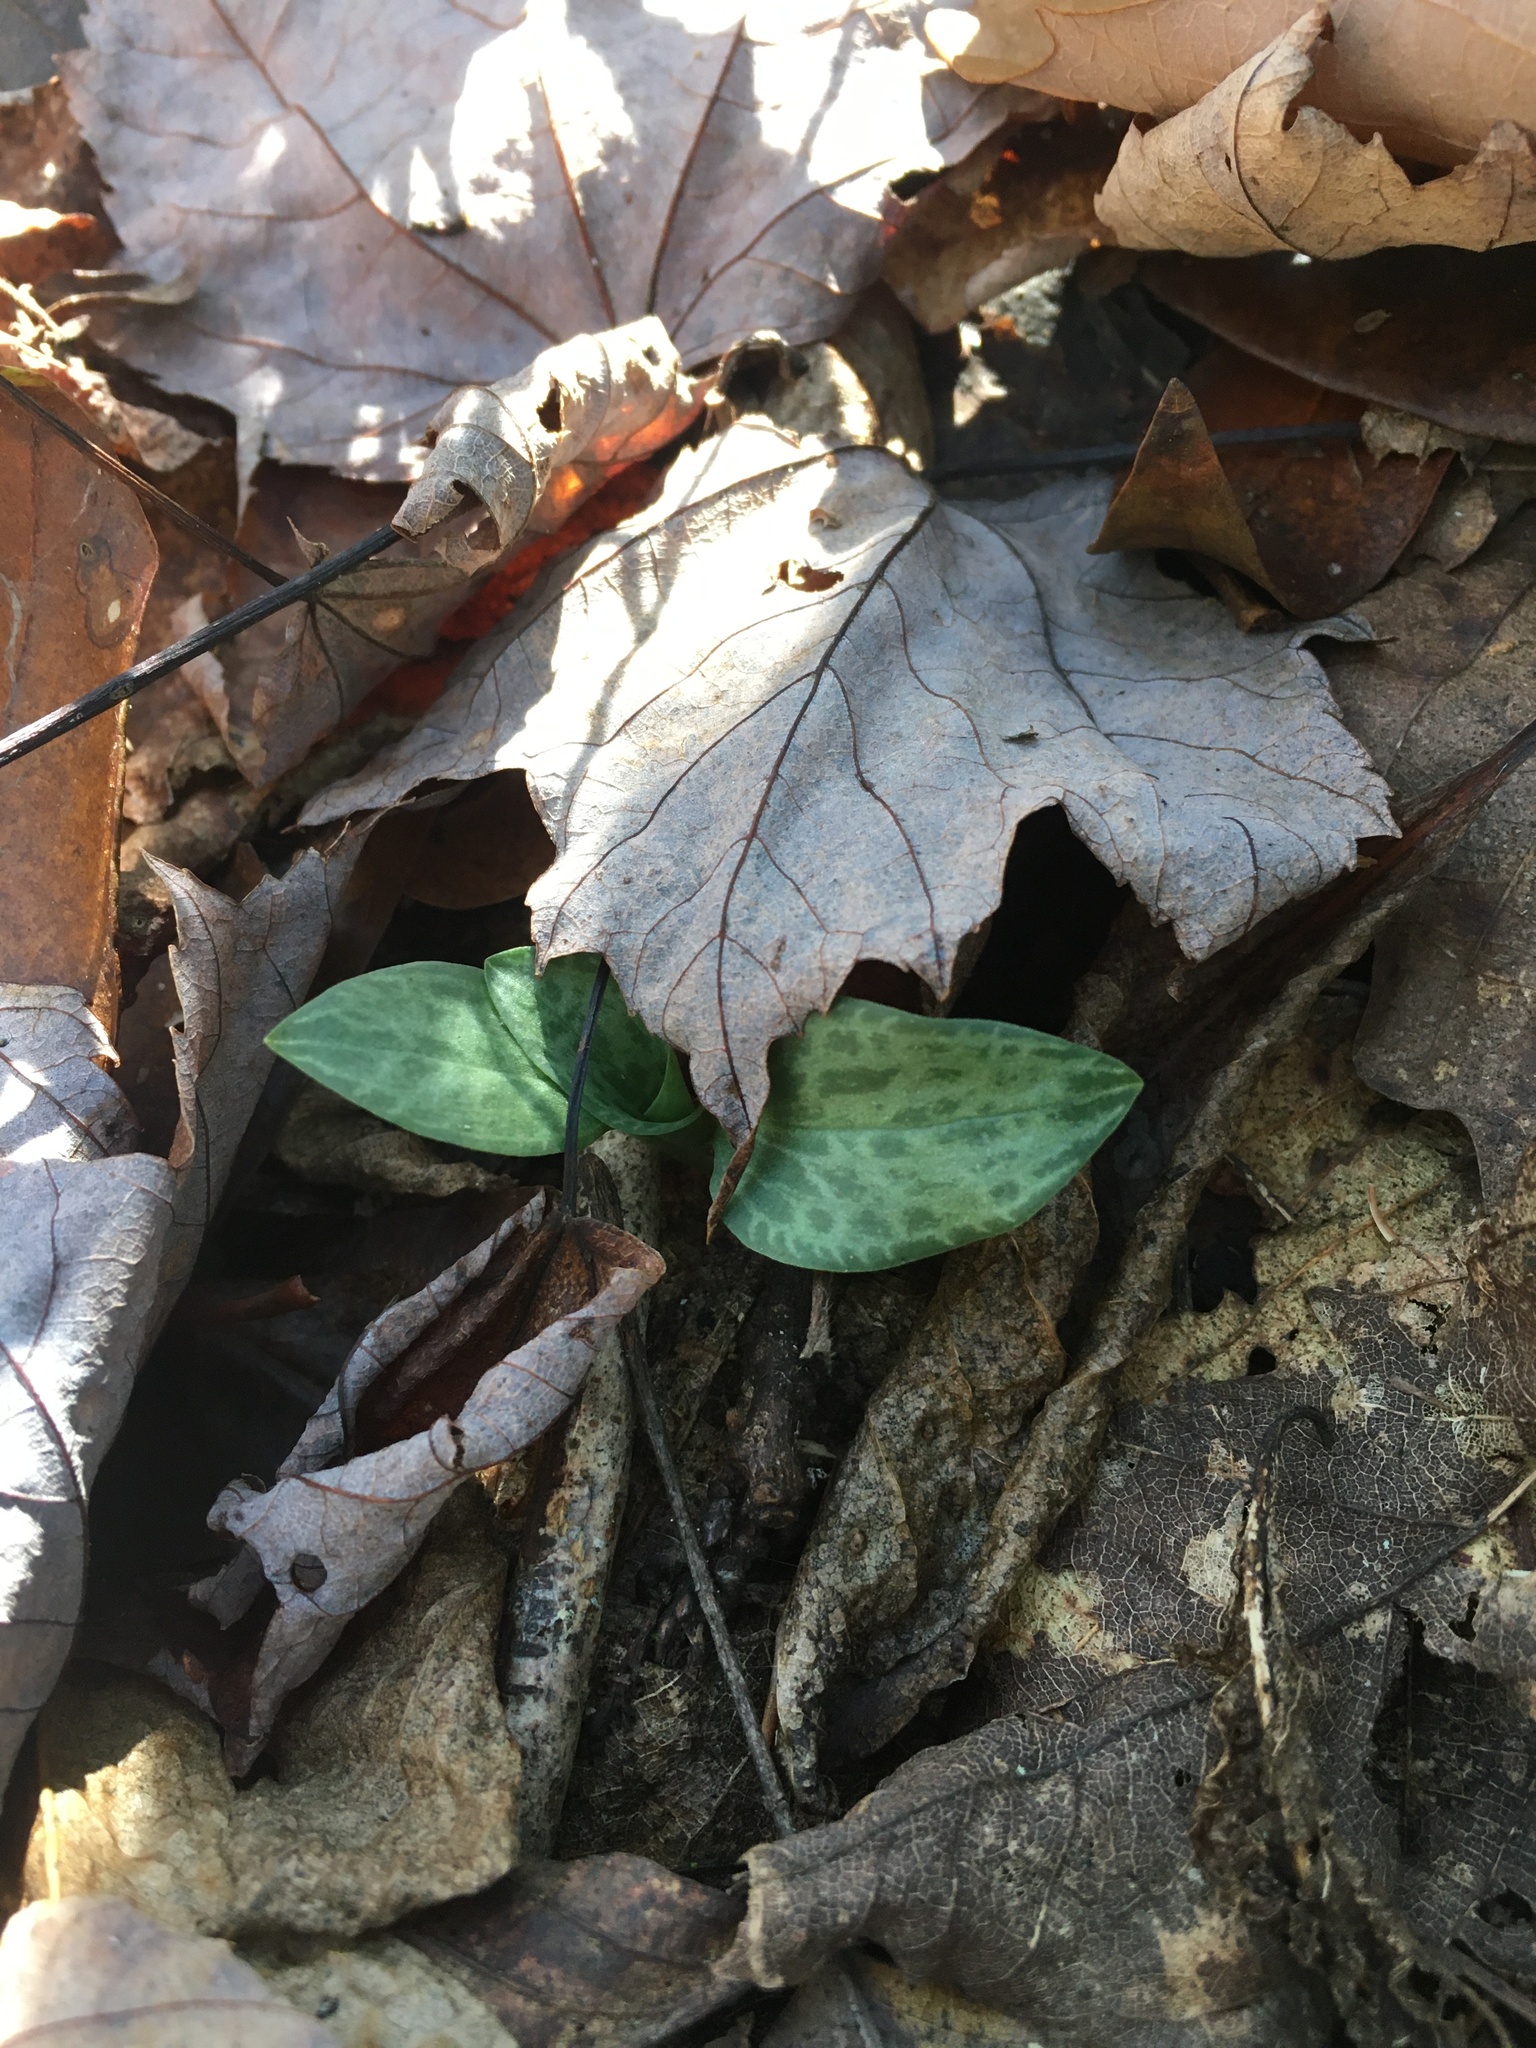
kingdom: Plantae
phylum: Tracheophyta
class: Liliopsida
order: Asparagales
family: Orchidaceae
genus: Goodyera
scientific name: Goodyera tesselata
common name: Checkered rattlesnake-plantain
